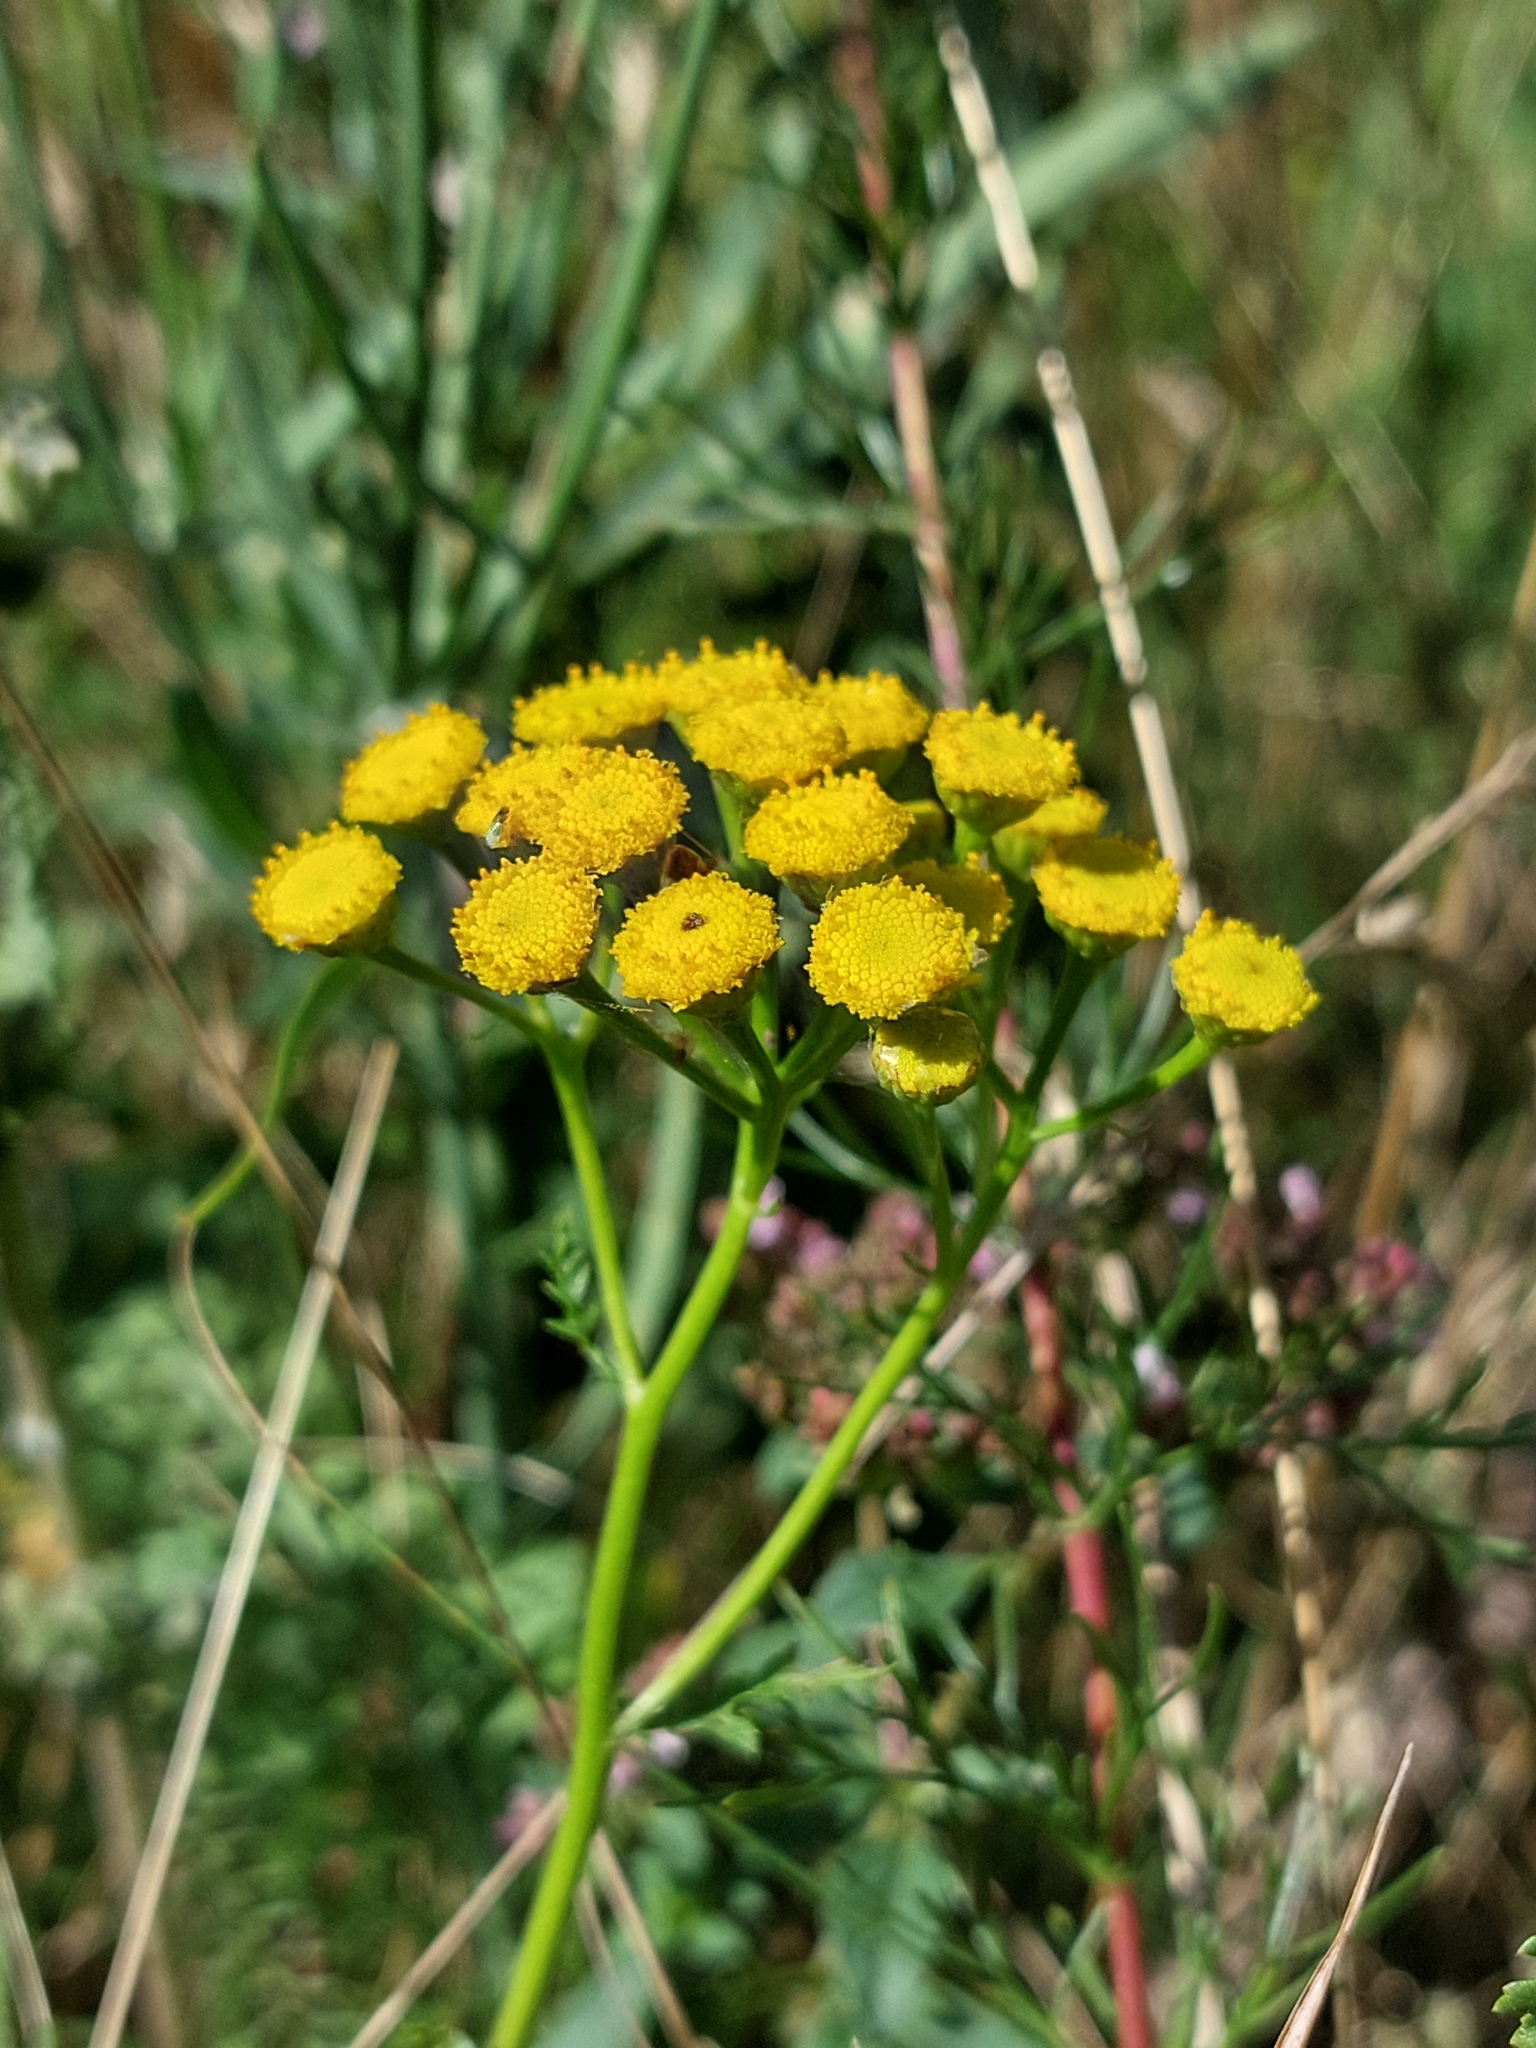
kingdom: Plantae
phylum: Tracheophyta
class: Magnoliopsida
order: Asterales
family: Asteraceae
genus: Tanacetum
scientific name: Tanacetum vulgare
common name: Common tansy
